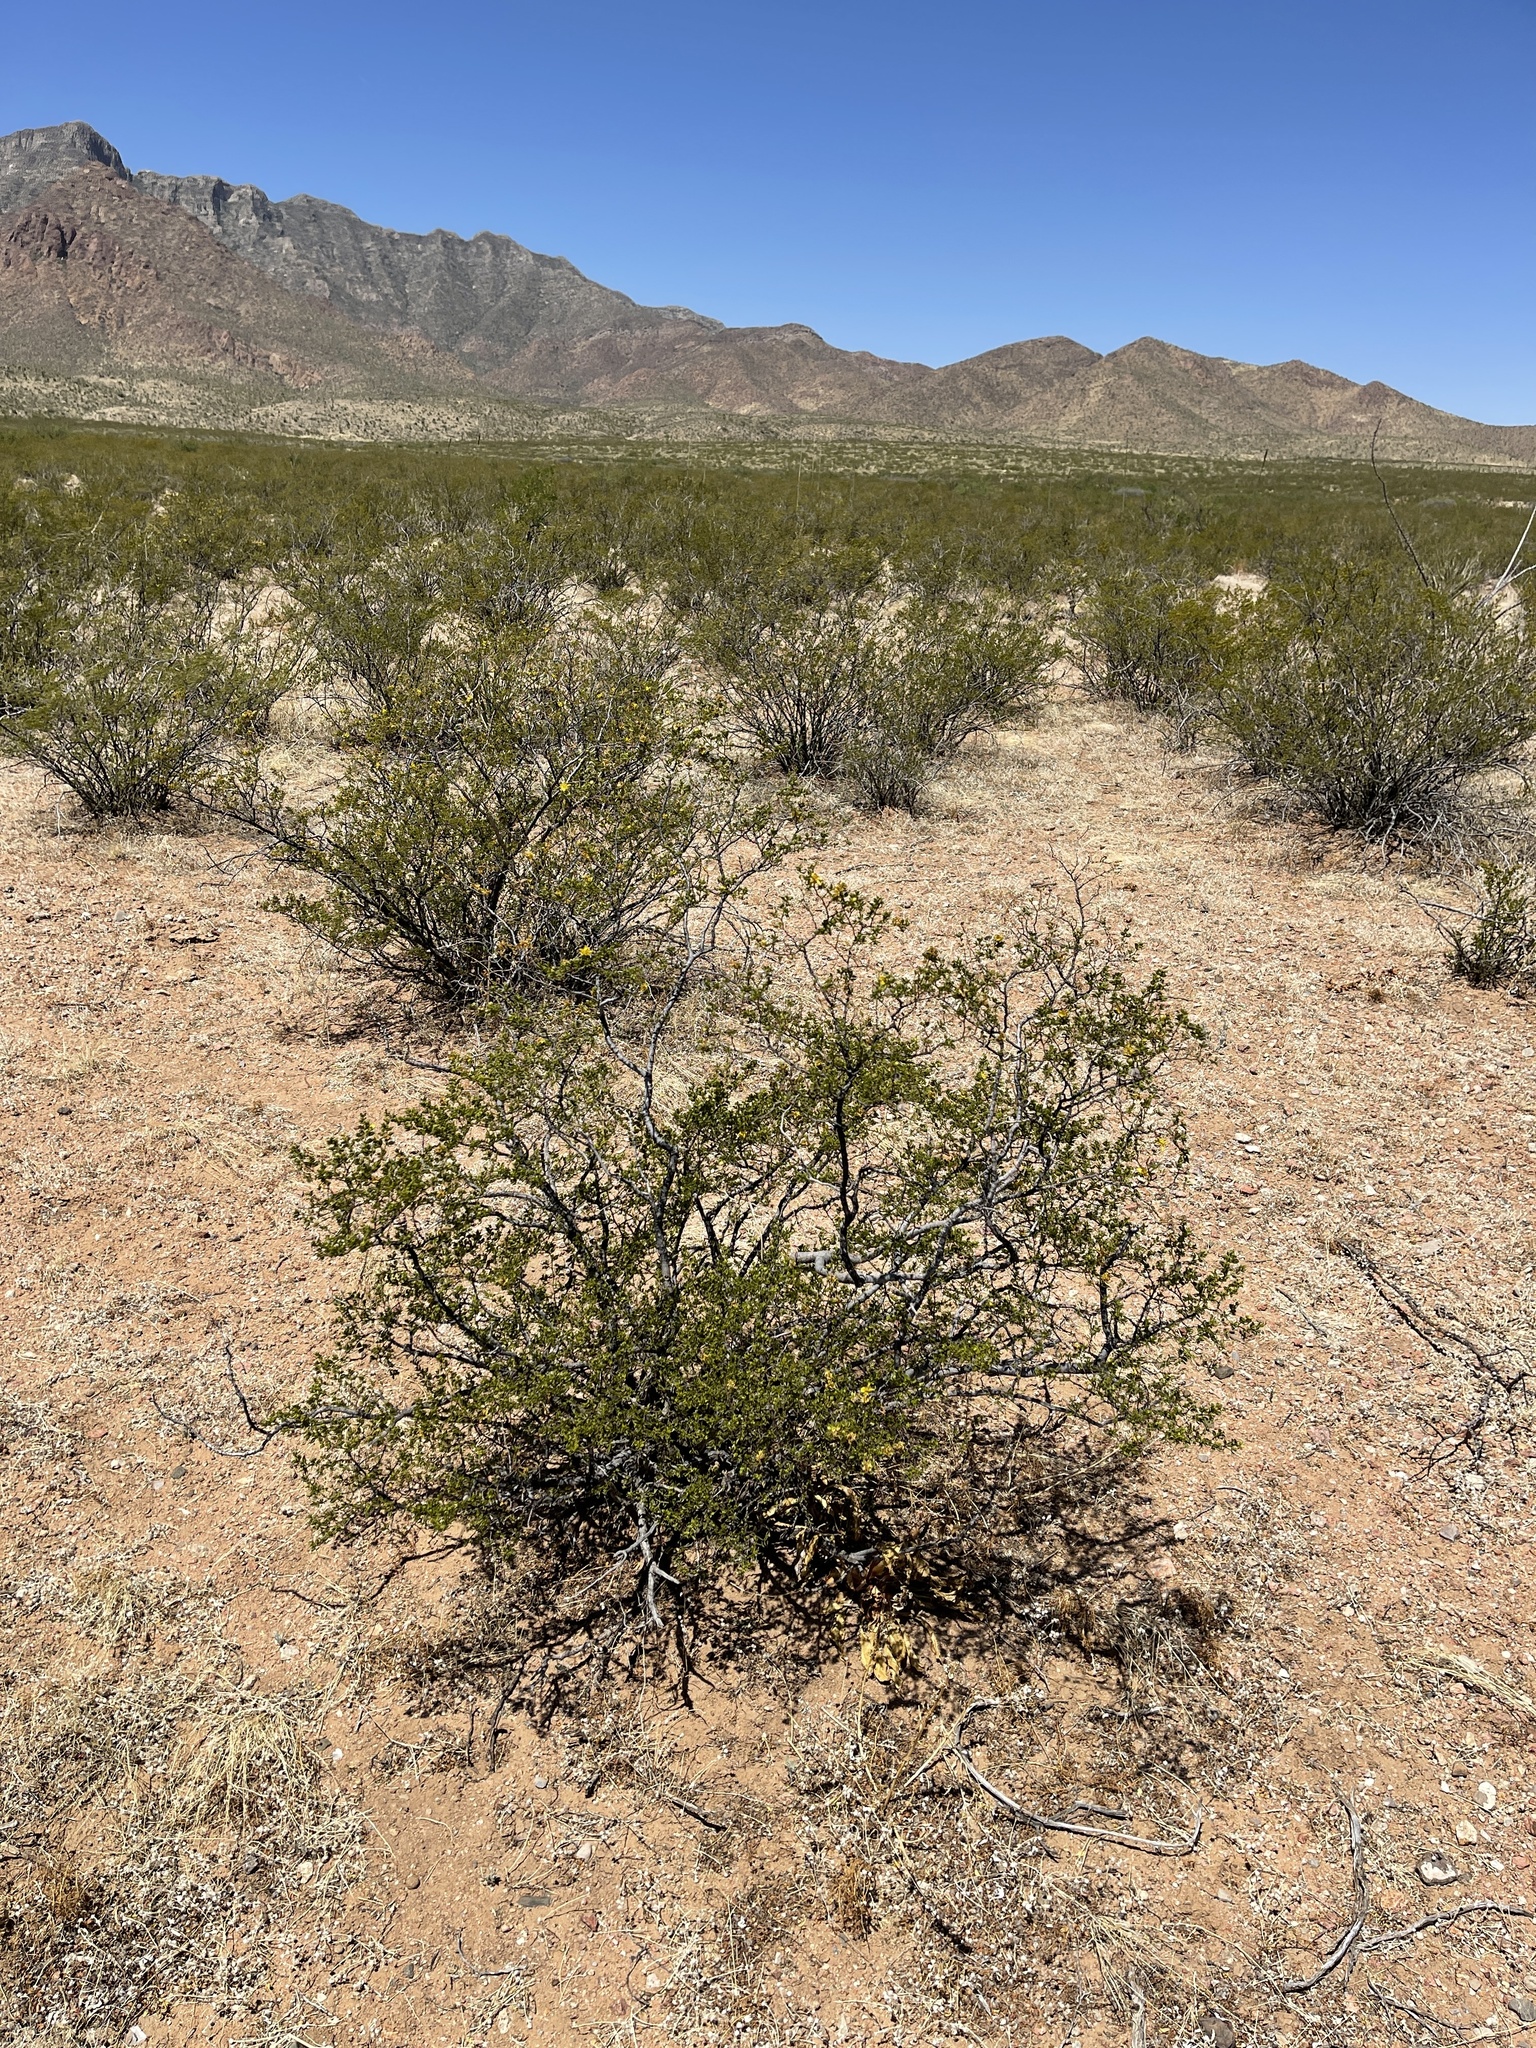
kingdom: Plantae
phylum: Tracheophyta
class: Magnoliopsida
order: Zygophyllales
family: Zygophyllaceae
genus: Larrea
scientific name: Larrea tridentata
